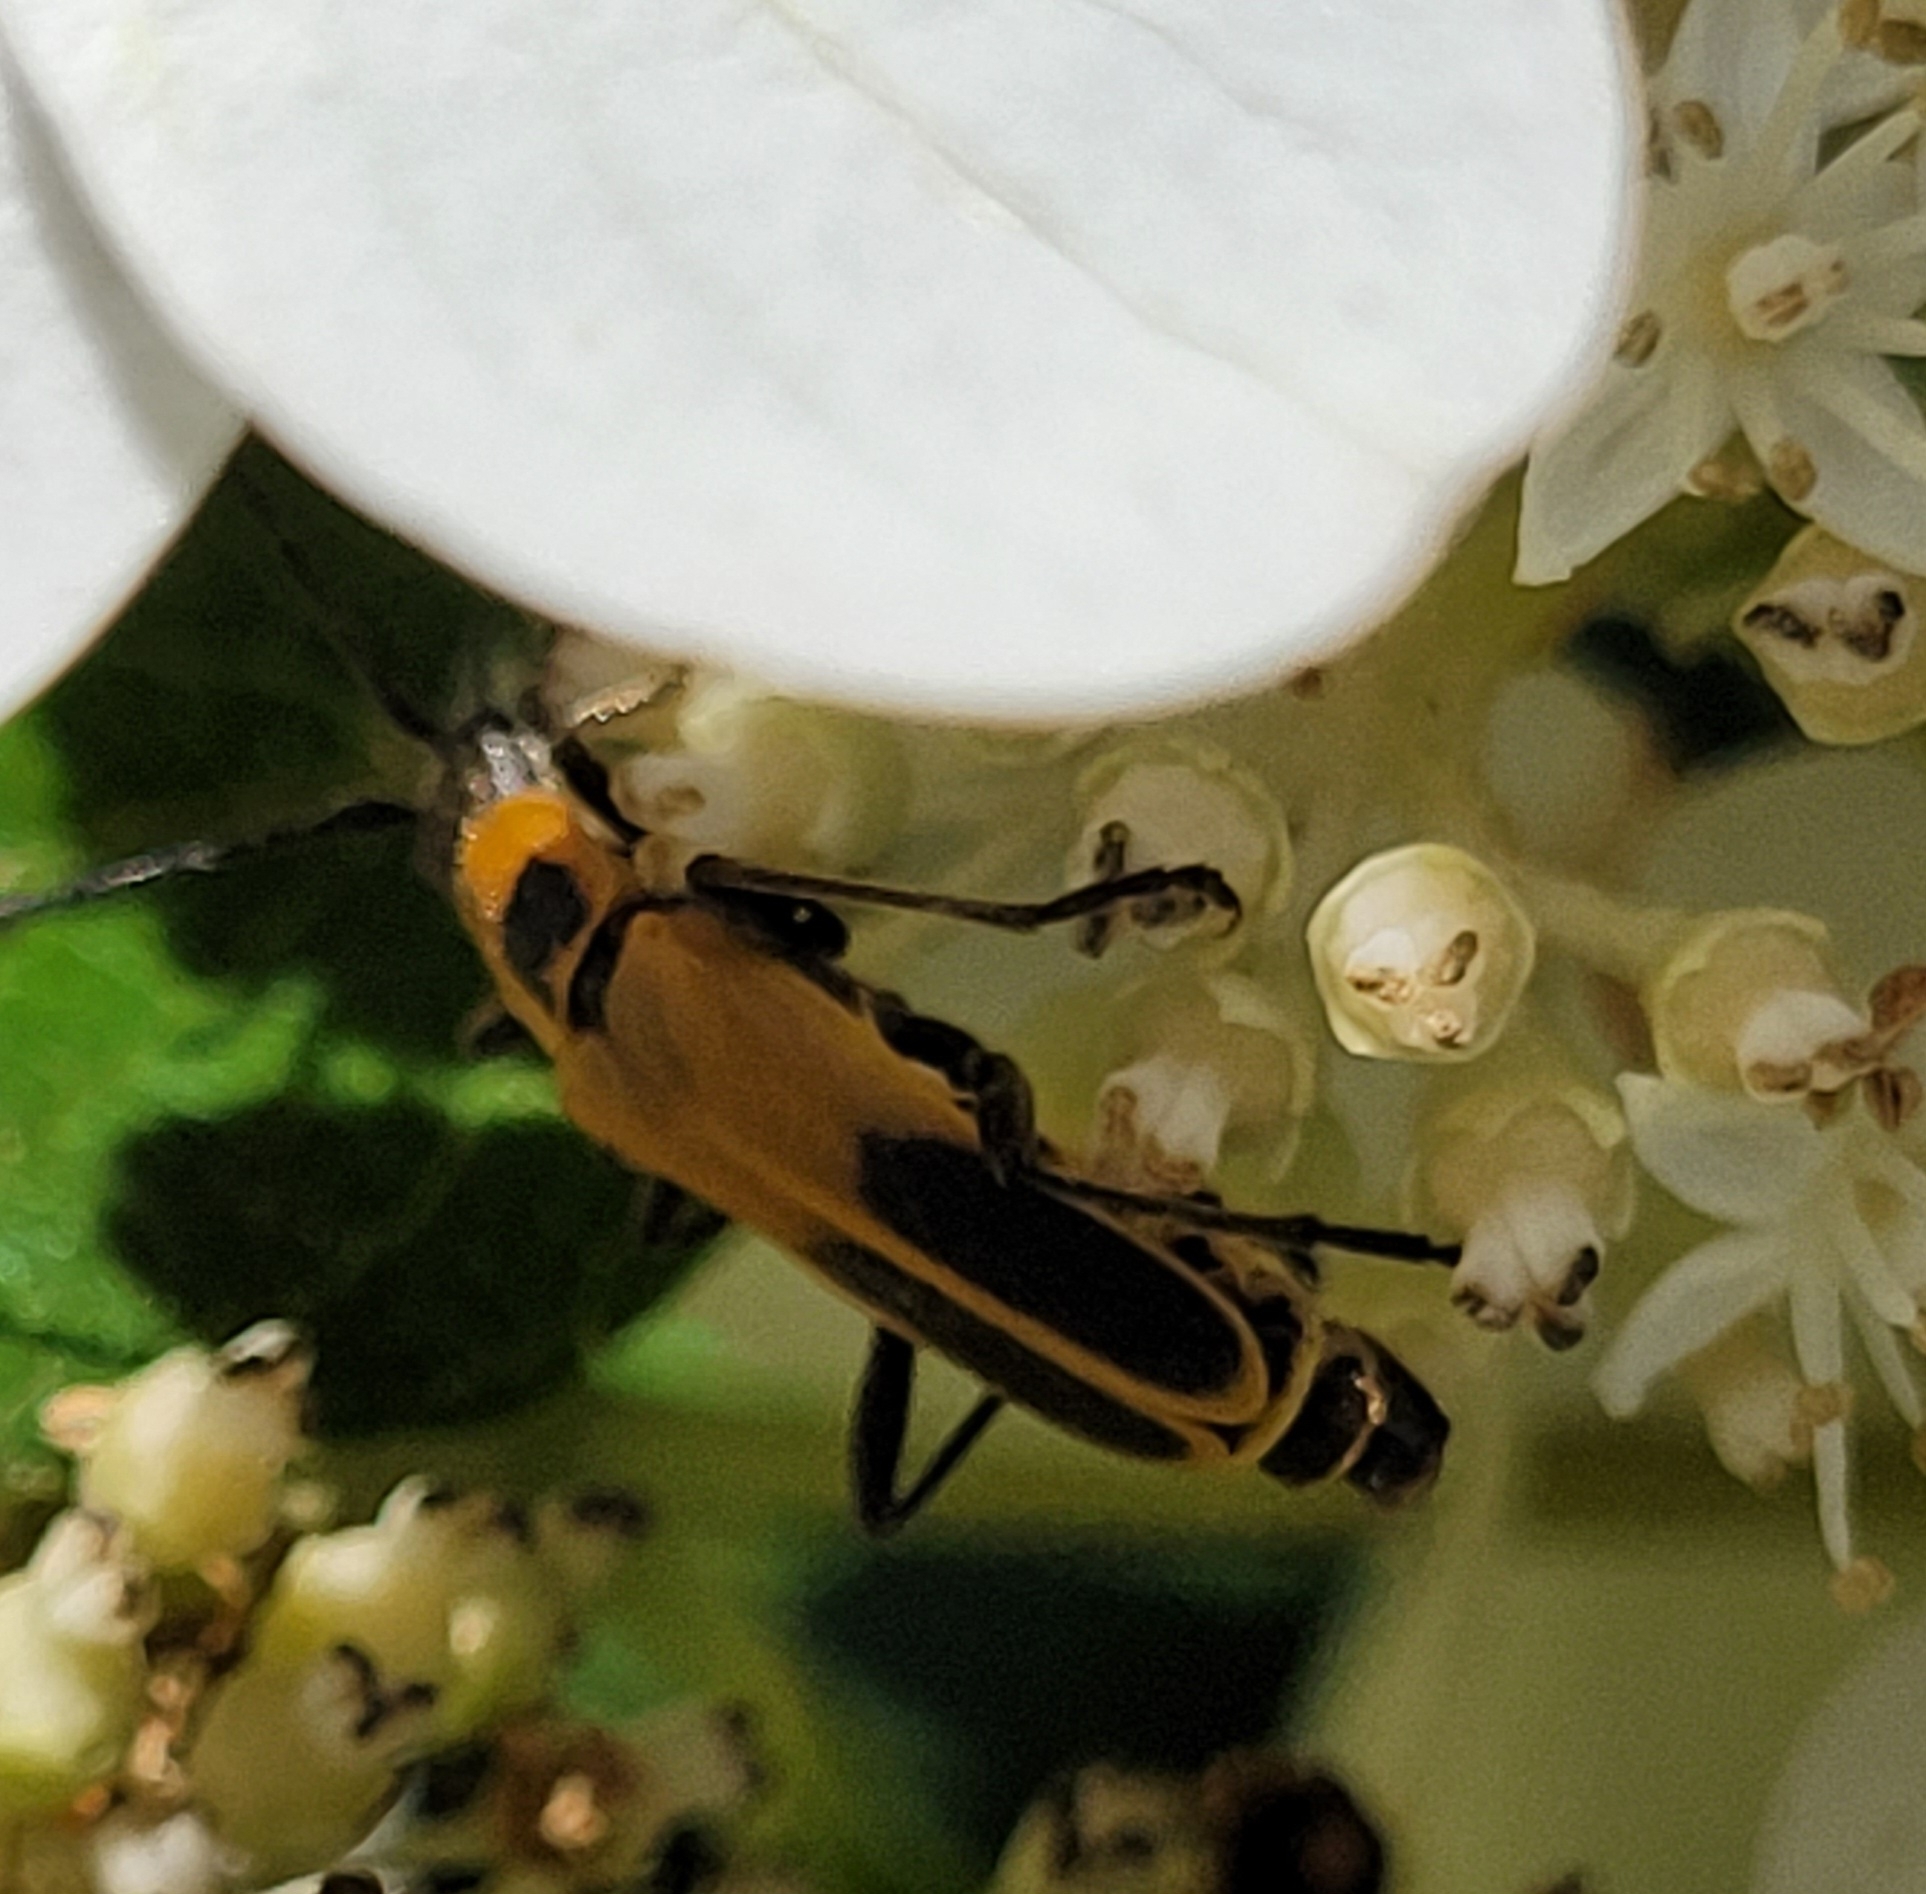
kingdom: Animalia
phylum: Arthropoda
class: Insecta
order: Coleoptera
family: Cantharidae
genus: Chauliognathus
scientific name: Chauliognathus pensylvanicus
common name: Goldenrod soldier beetle
